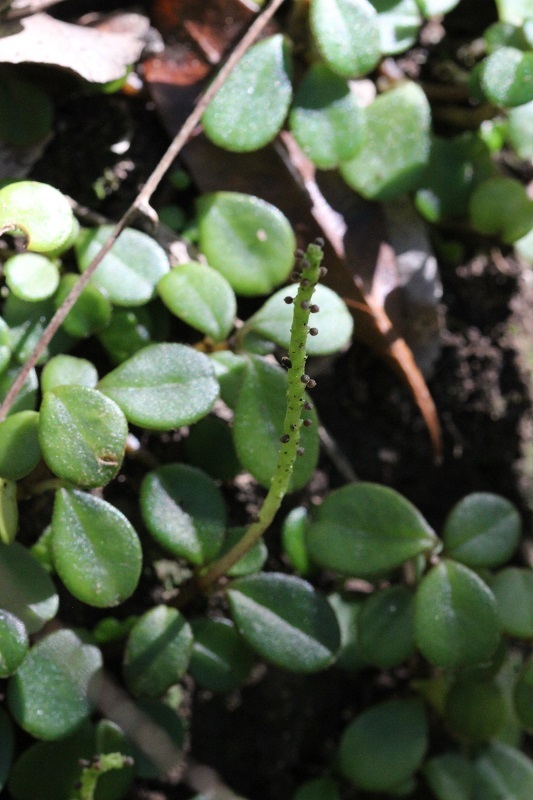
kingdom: Plantae
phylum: Tracheophyta
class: Magnoliopsida
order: Piperales
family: Piperaceae
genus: Peperomia
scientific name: Peperomia retusa
